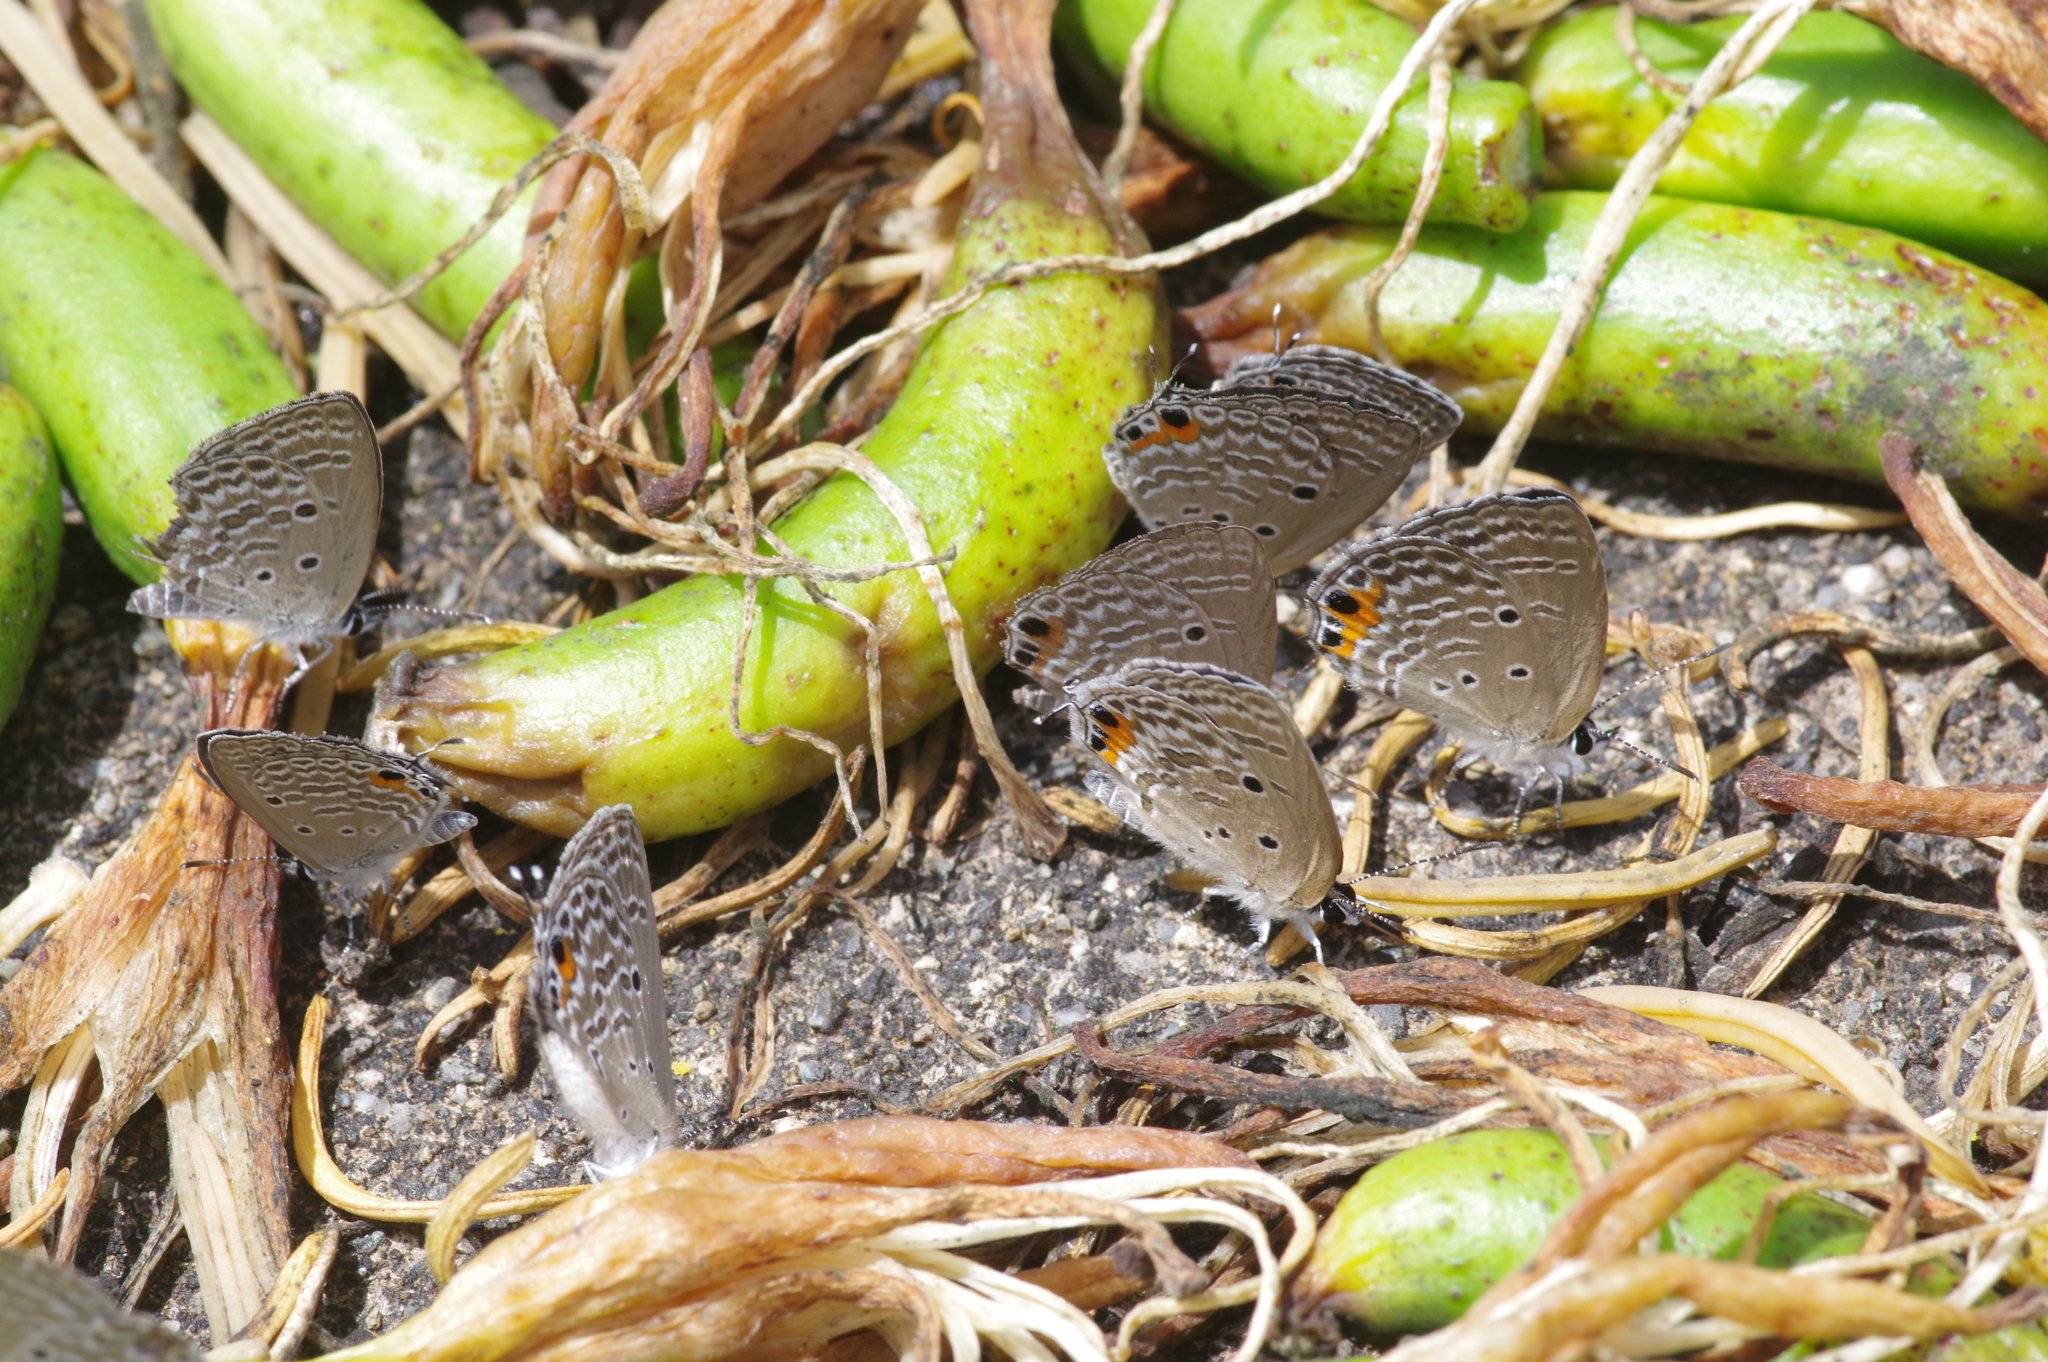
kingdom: Animalia
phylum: Arthropoda
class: Insecta
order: Lepidoptera
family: Lycaenidae
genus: Luthrodes
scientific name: Luthrodes pandava
